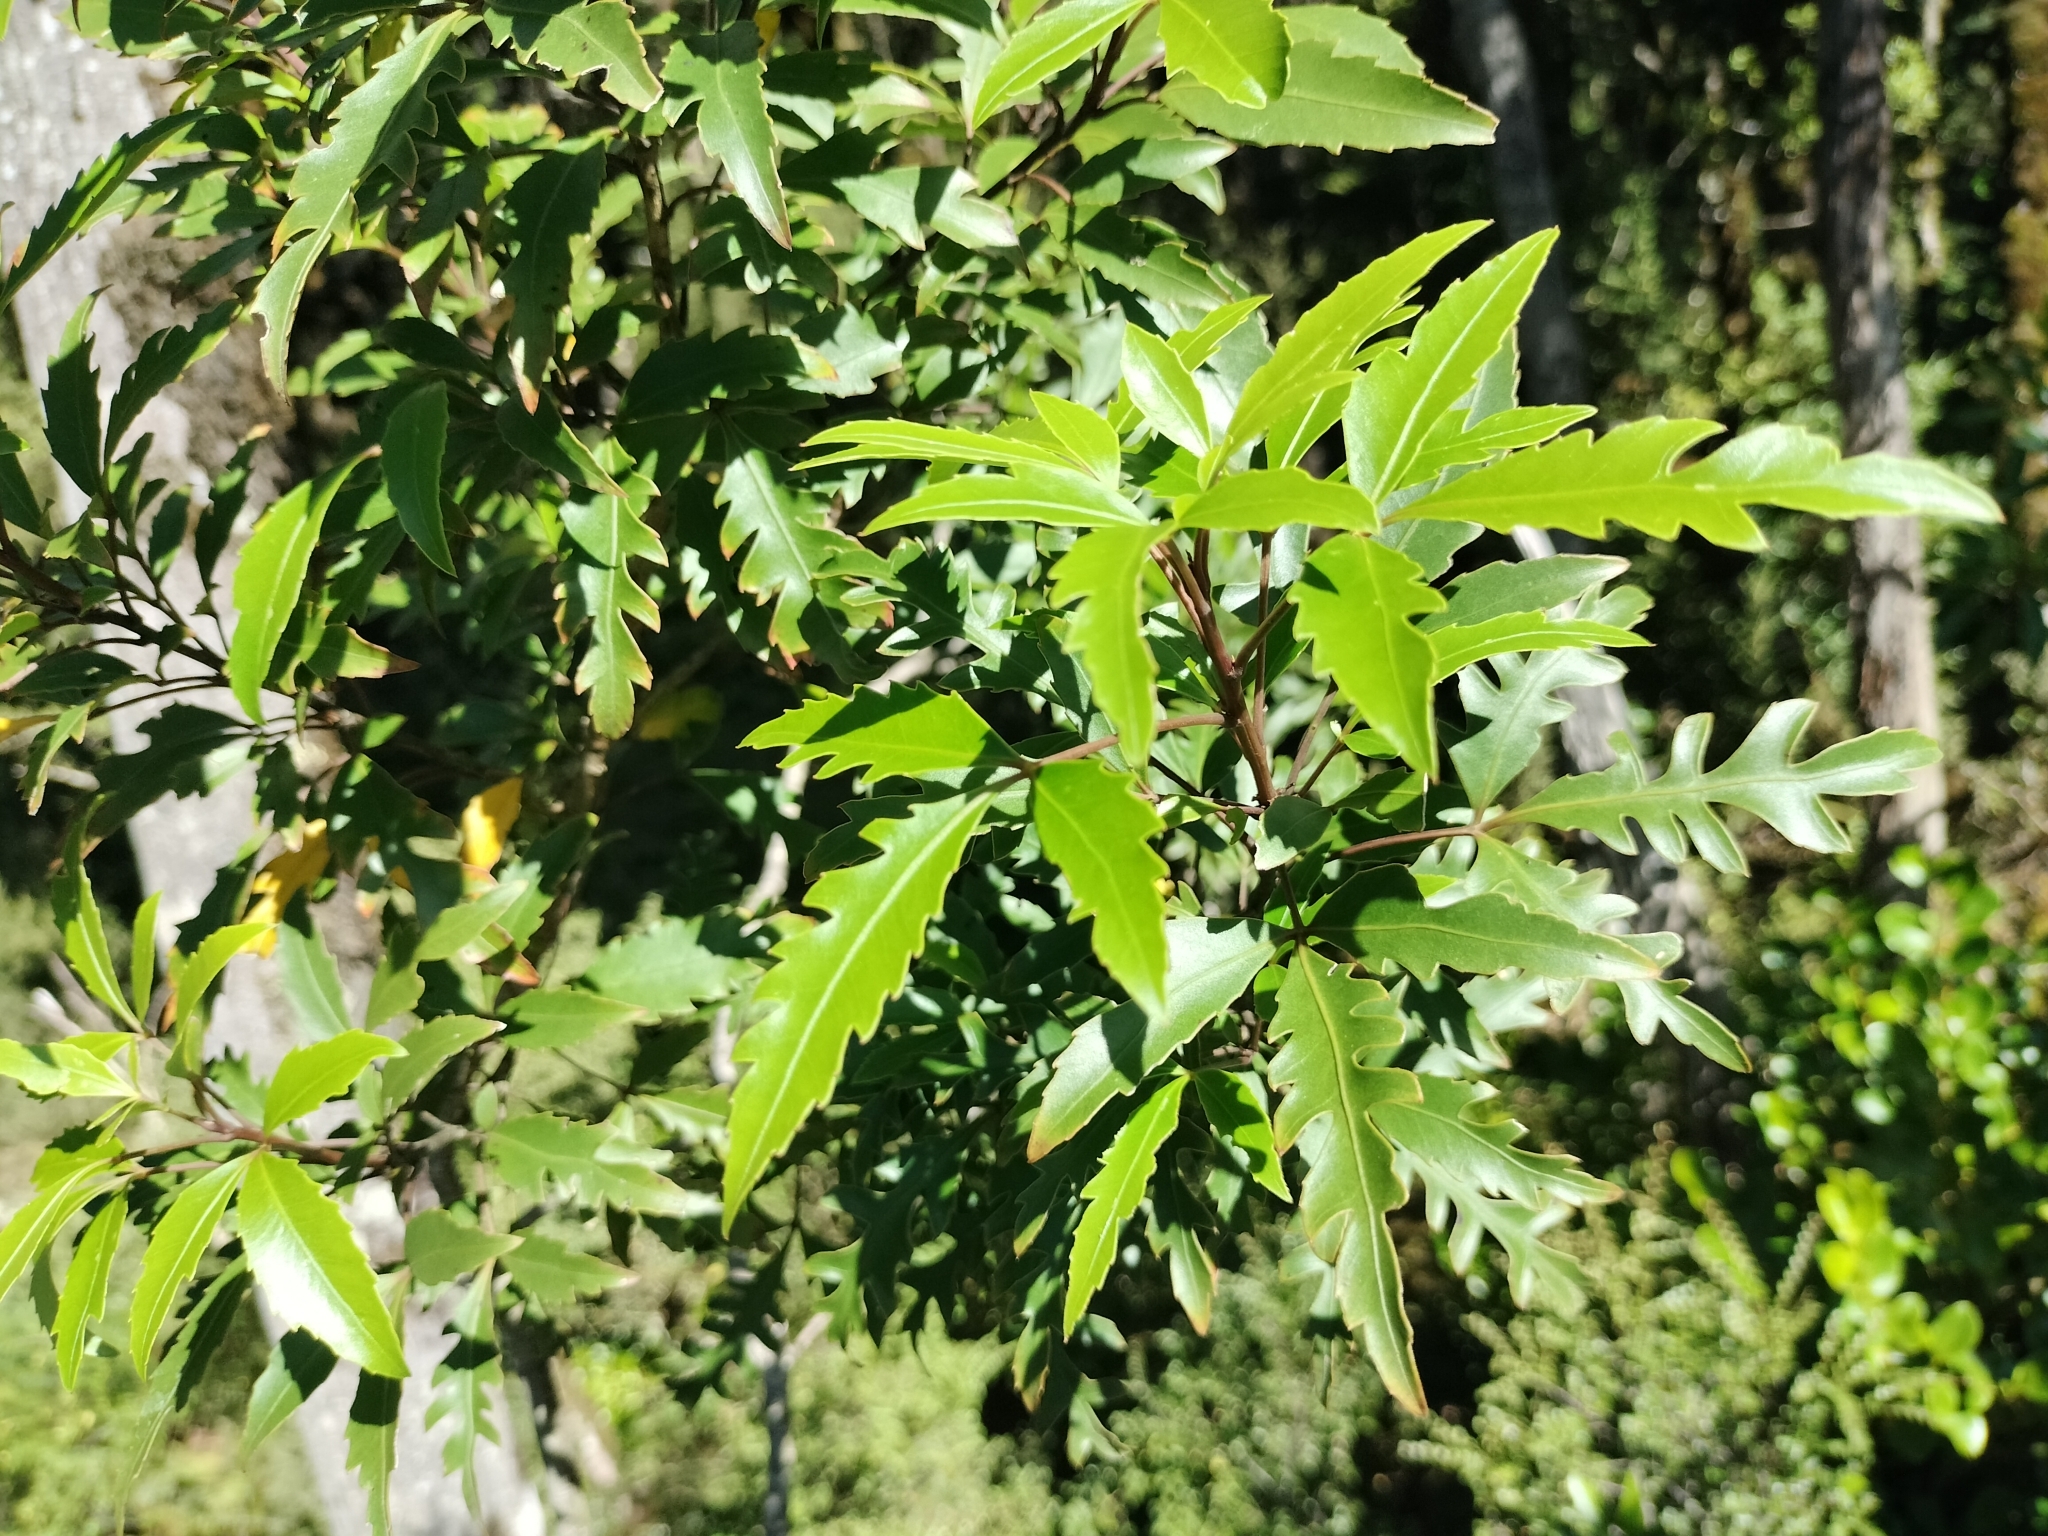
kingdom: Plantae
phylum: Tracheophyta
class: Magnoliopsida
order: Apiales
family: Araliaceae
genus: Raukaua
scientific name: Raukaua simplex
